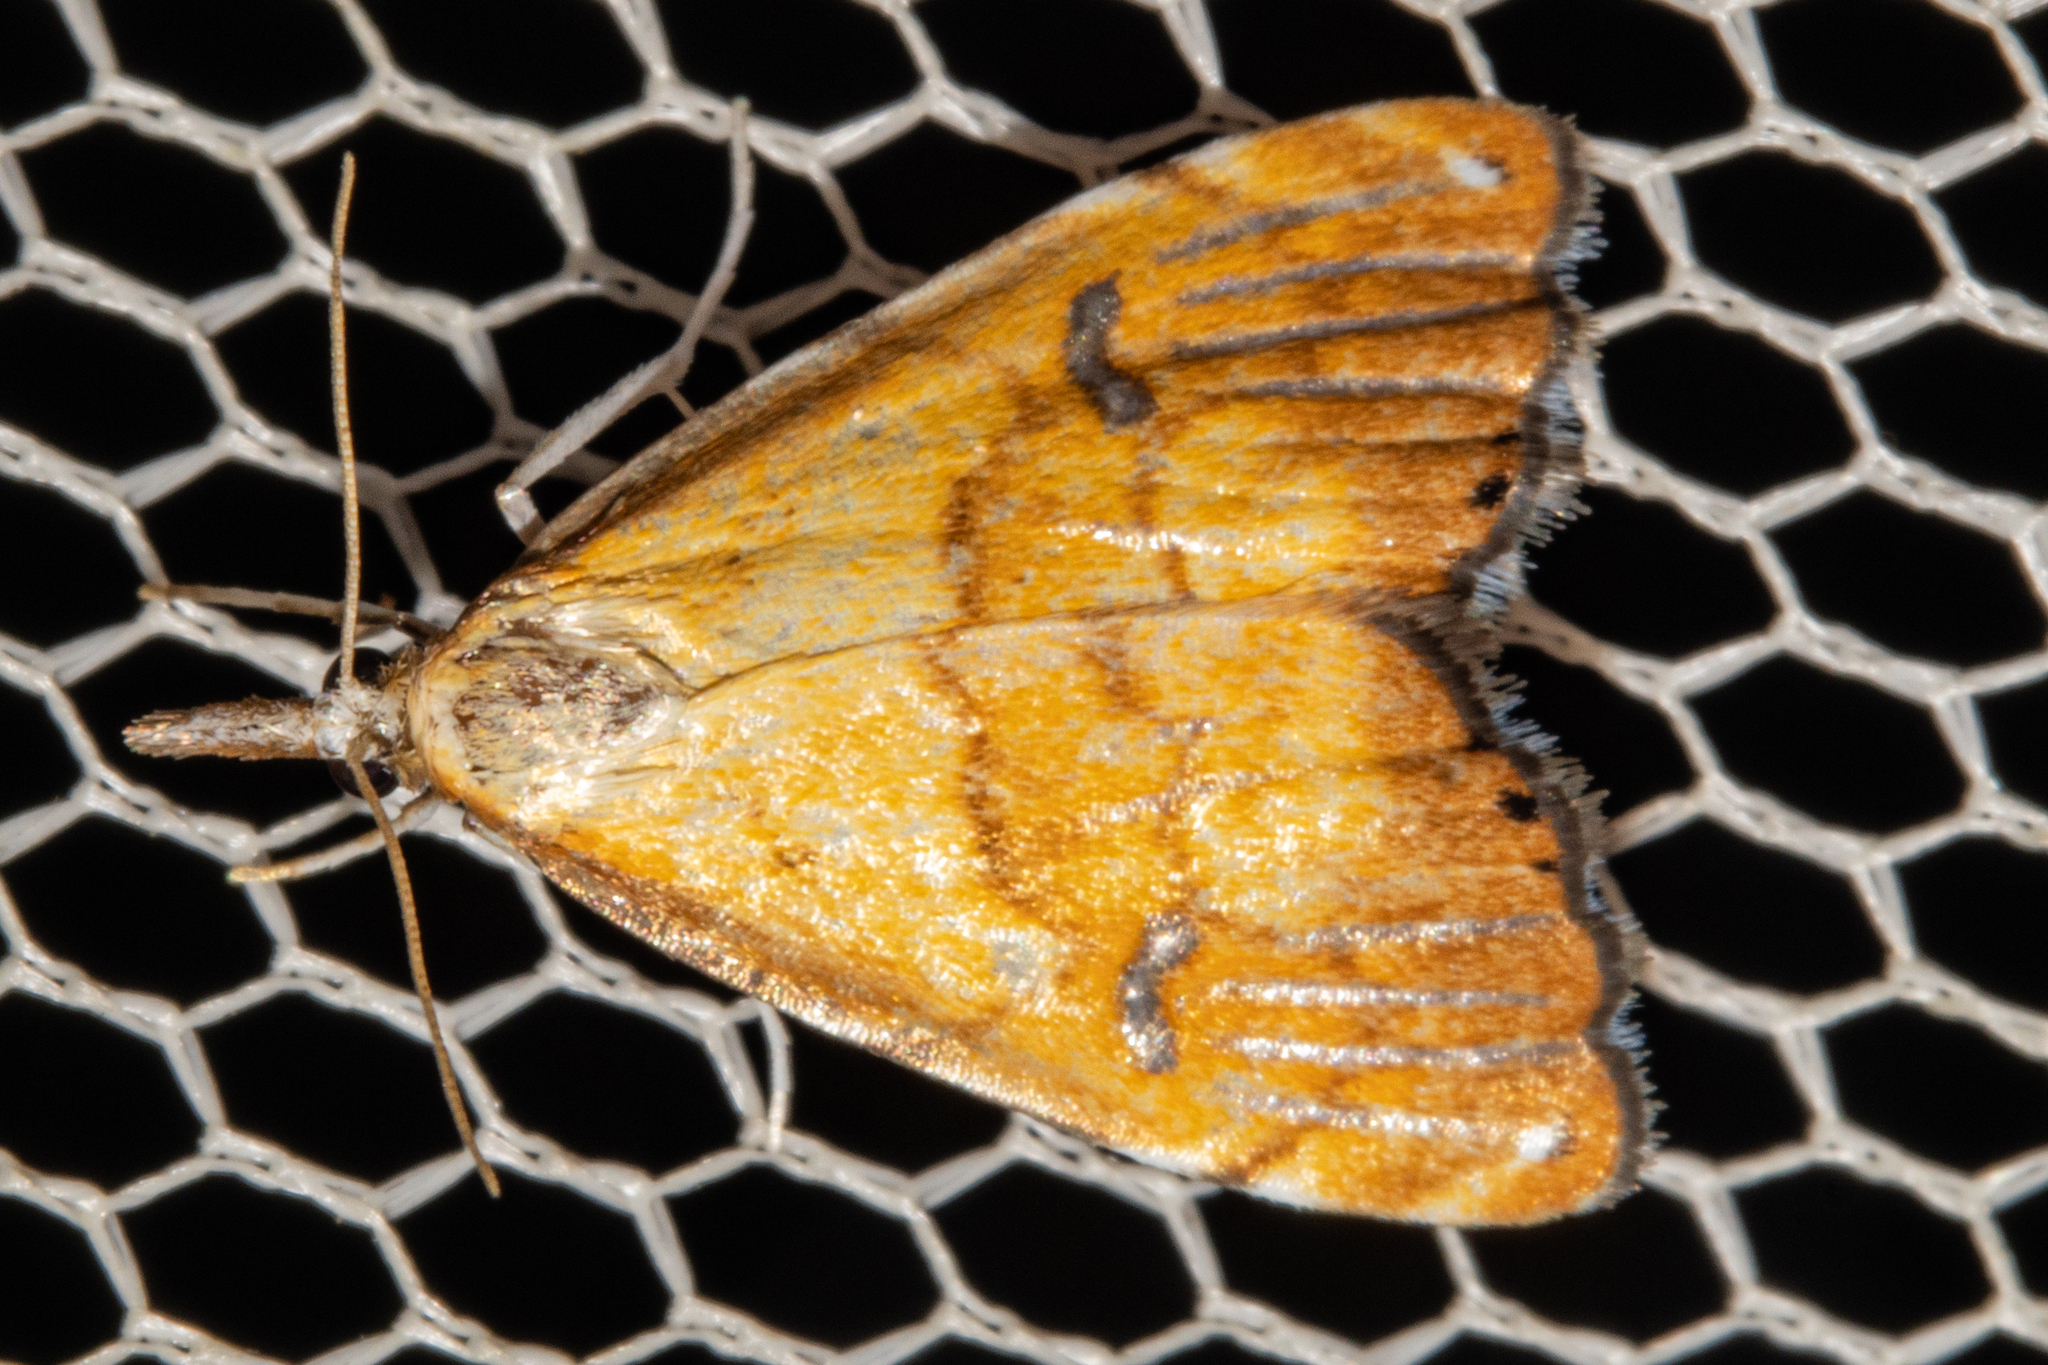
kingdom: Animalia
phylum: Arthropoda
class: Insecta
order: Lepidoptera
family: Crambidae
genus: Glaucocharis
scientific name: Glaucocharis metallifera
